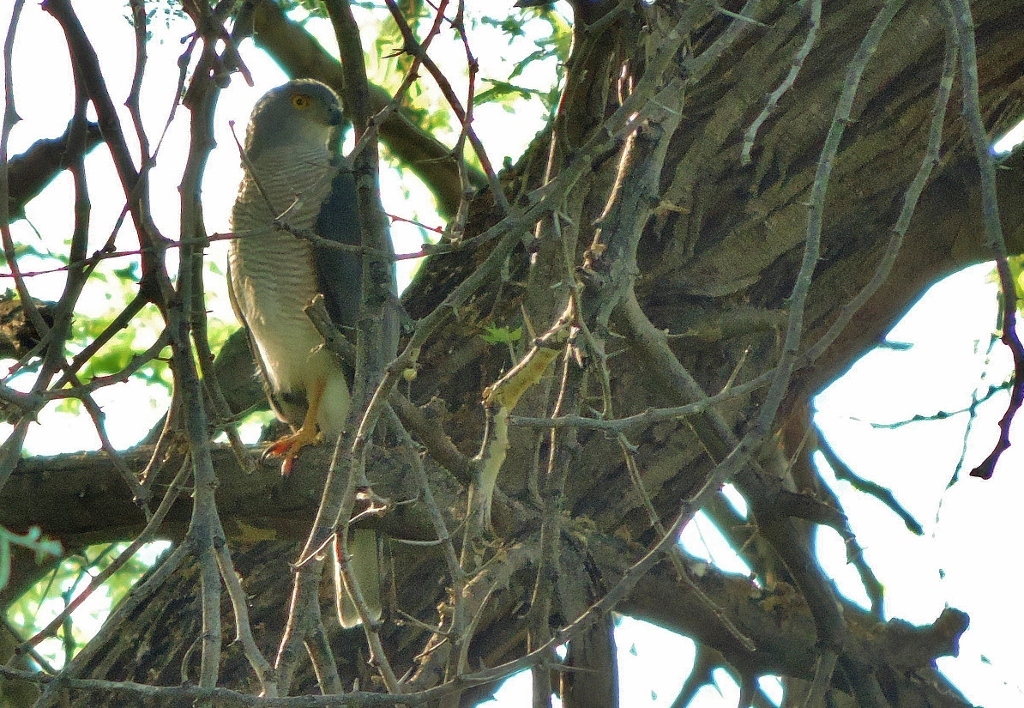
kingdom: Animalia
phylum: Chordata
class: Aves
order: Accipitriformes
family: Accipitridae
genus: Accipiter
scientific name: Accipiter tachiro
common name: African goshawk
